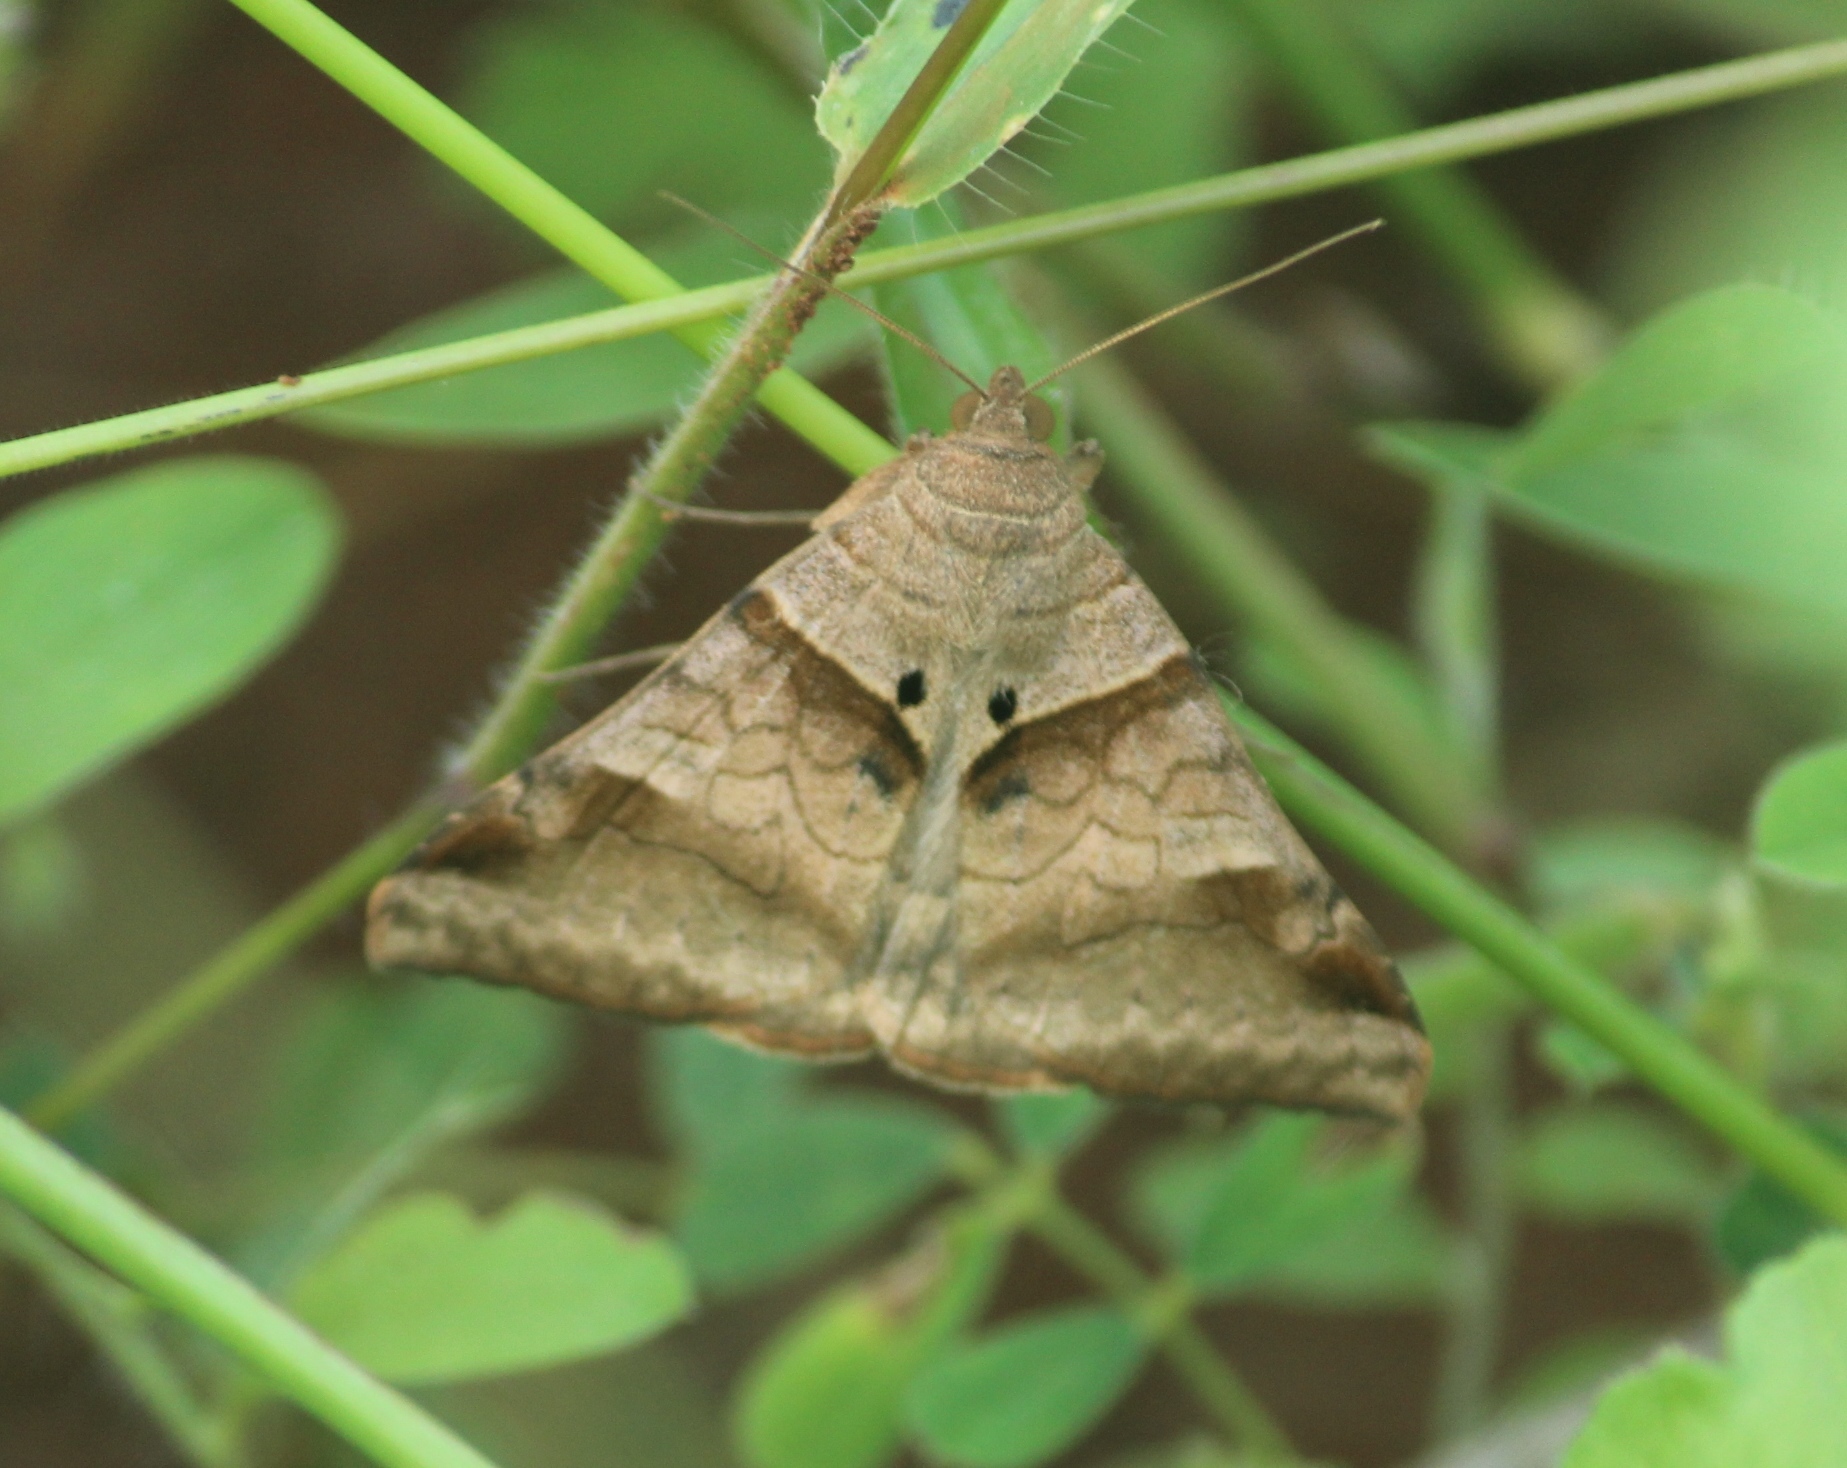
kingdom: Animalia
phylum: Arthropoda
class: Insecta
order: Lepidoptera
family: Erebidae
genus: Mocis
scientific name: Mocis undata
